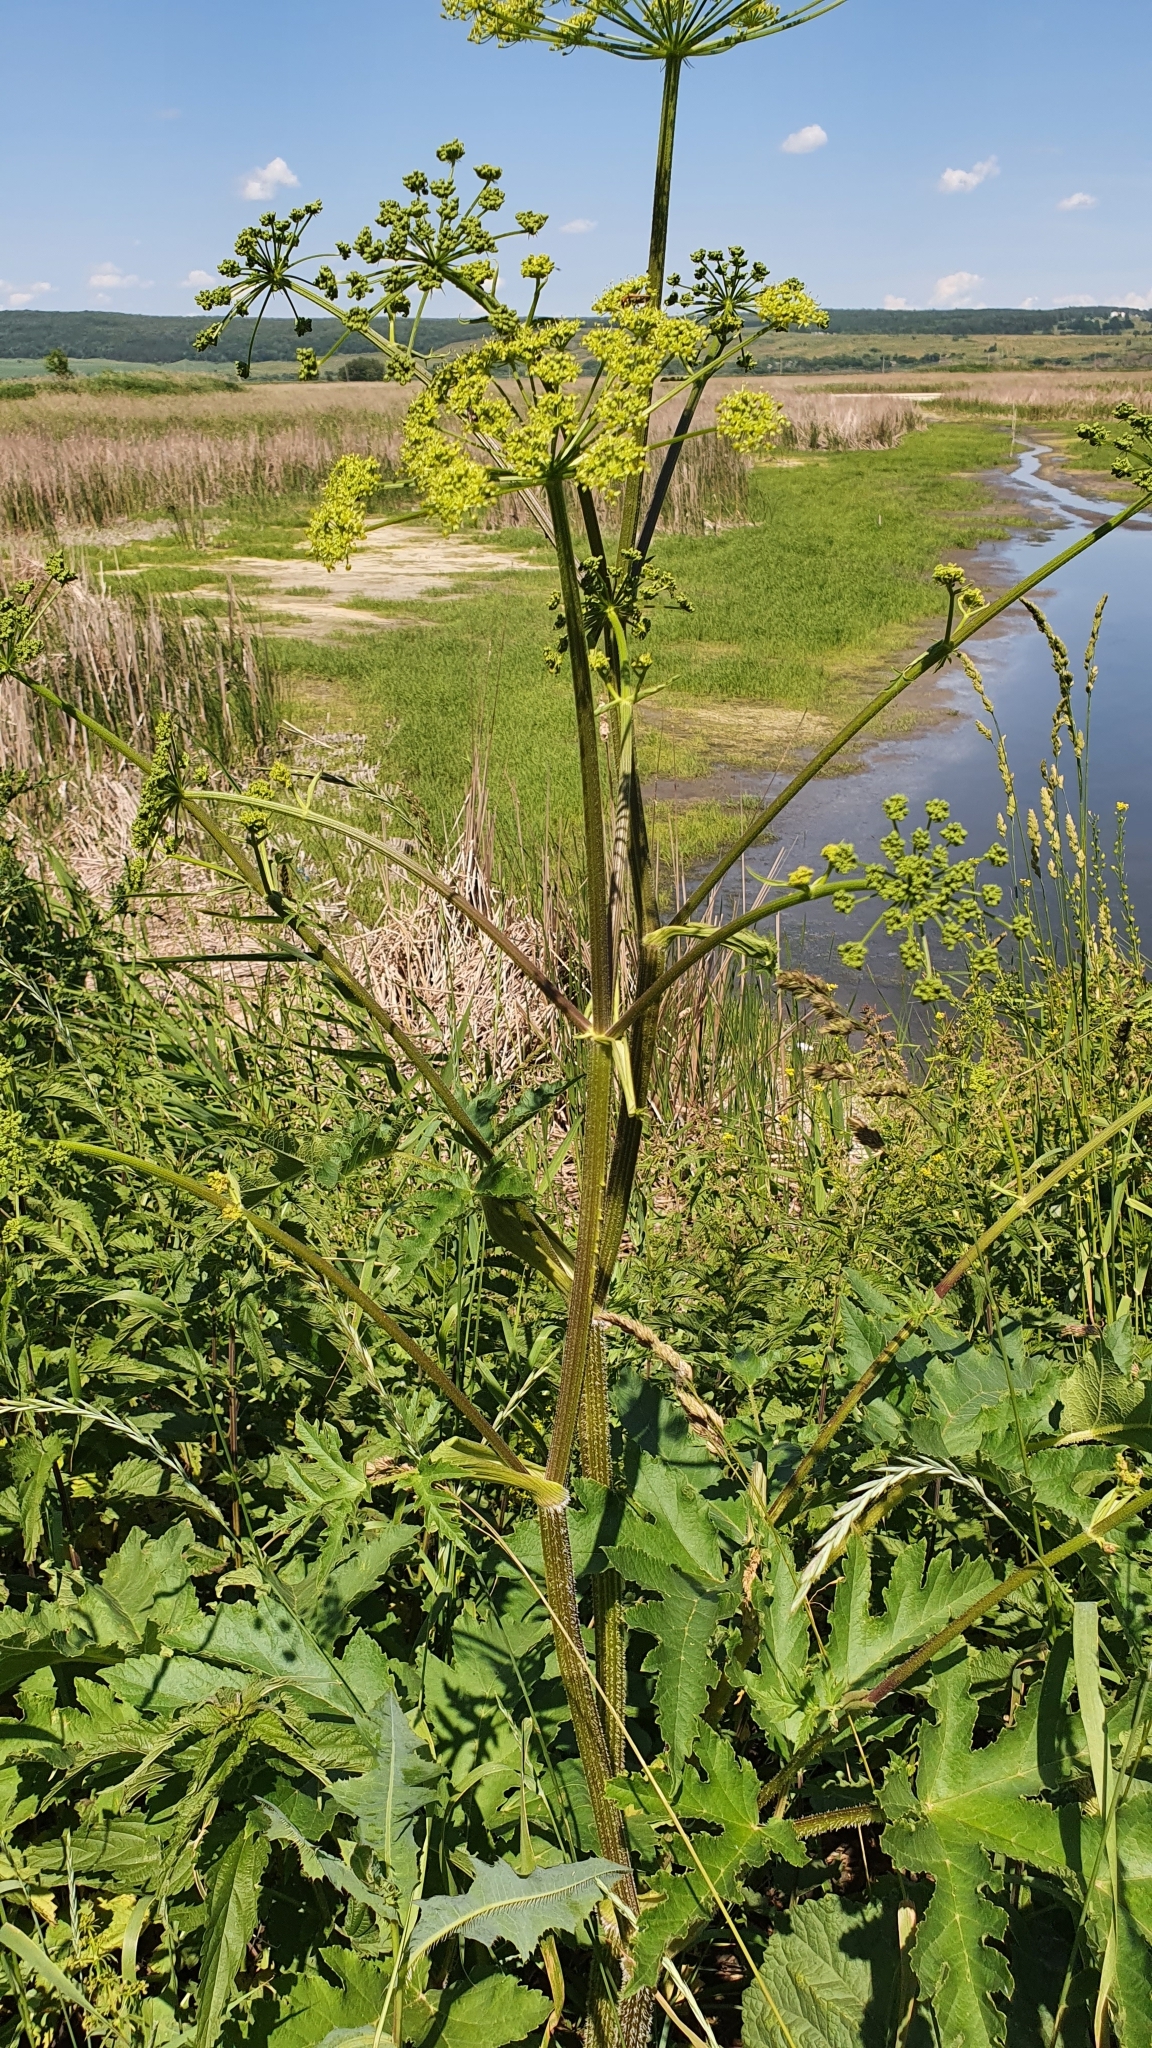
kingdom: Plantae
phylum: Tracheophyta
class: Magnoliopsida
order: Apiales
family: Apiaceae
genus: Heracleum
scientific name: Heracleum sphondylium
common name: Hogweed
